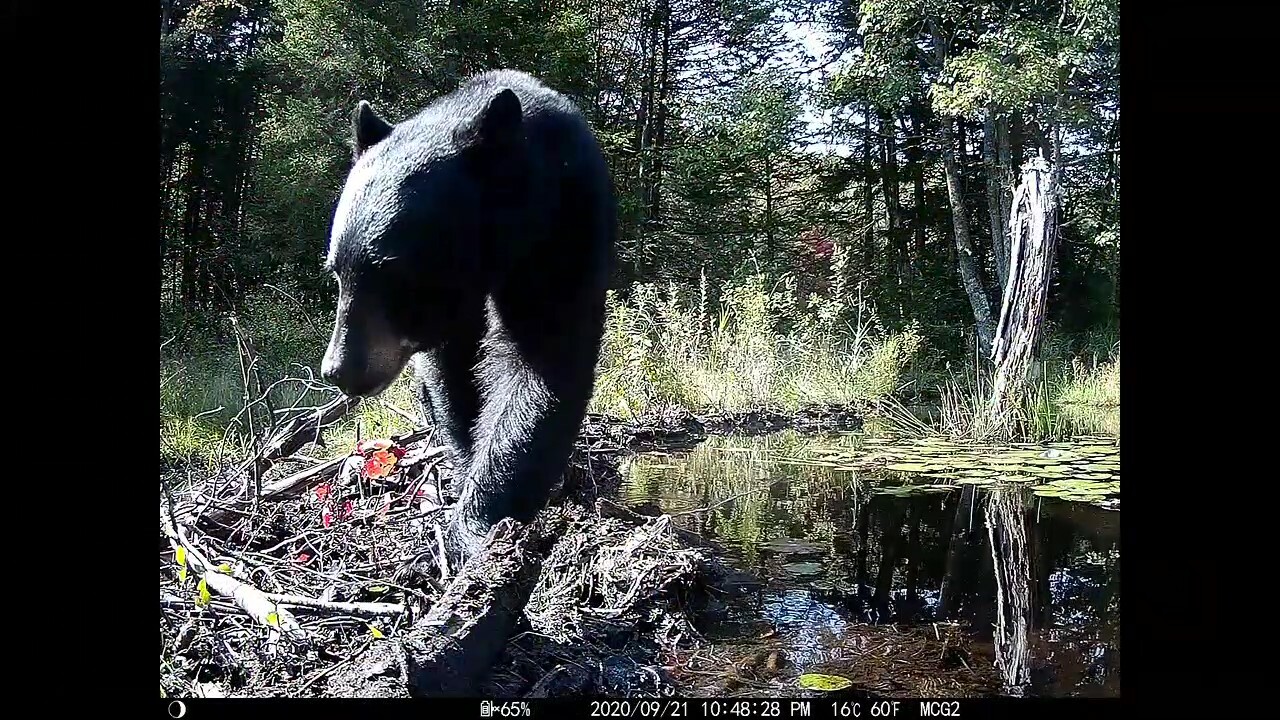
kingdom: Animalia
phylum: Chordata
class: Mammalia
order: Carnivora
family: Ursidae
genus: Ursus
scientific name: Ursus americanus
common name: American black bear
